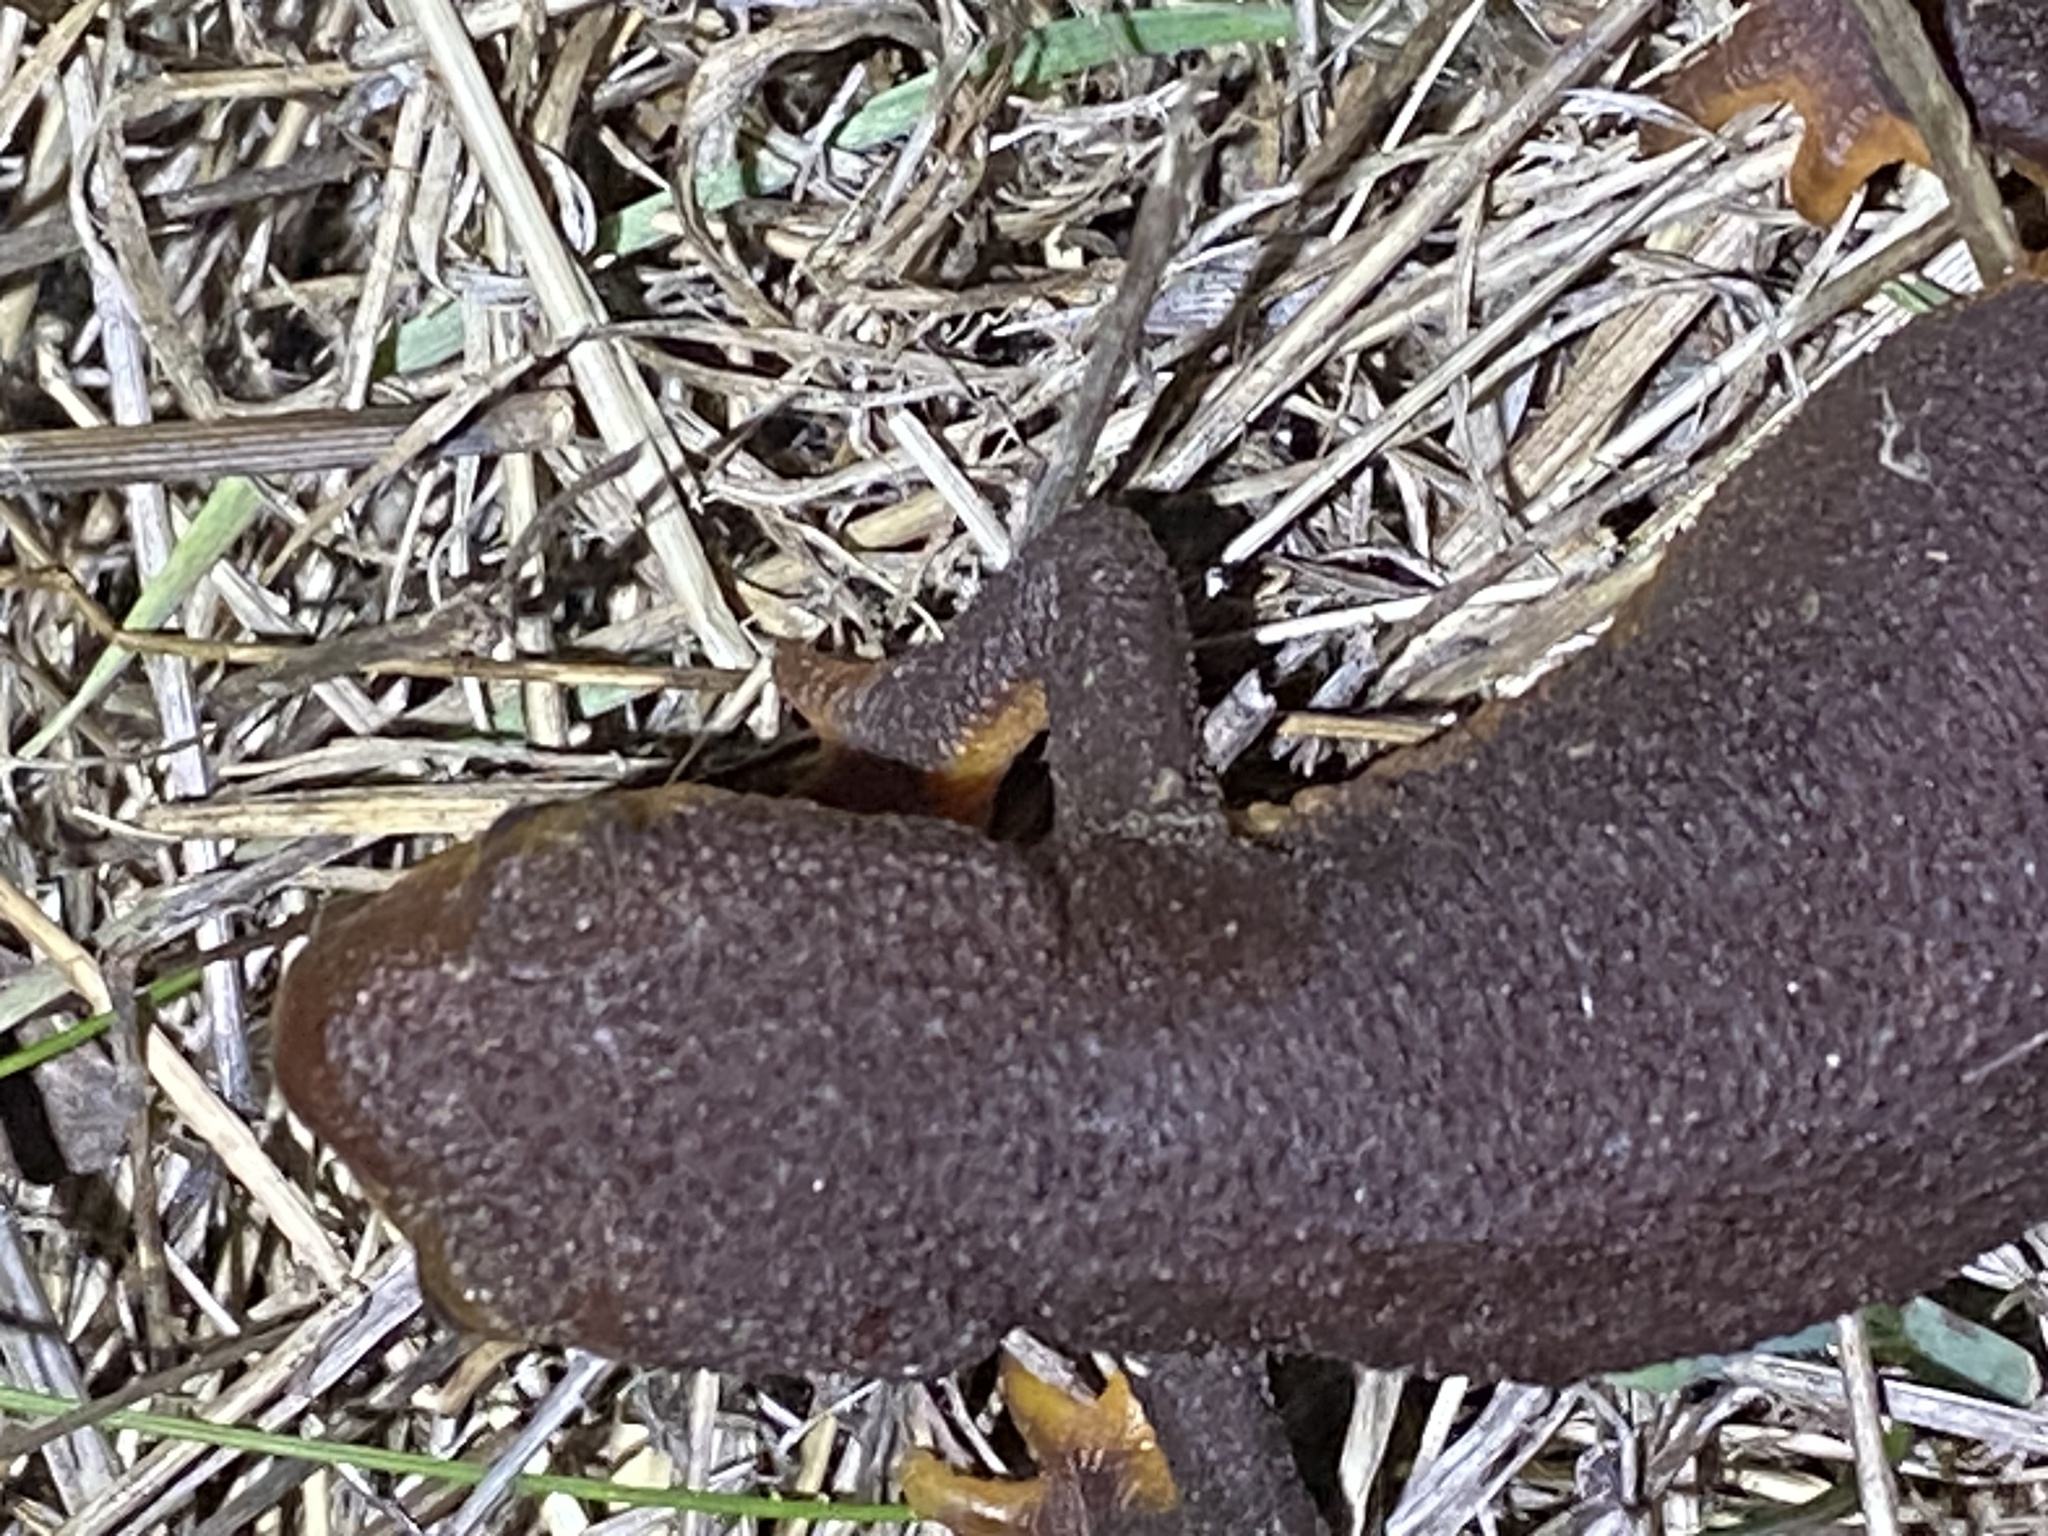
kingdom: Animalia
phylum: Chordata
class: Amphibia
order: Caudata
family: Salamandridae
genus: Taricha
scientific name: Taricha torosa
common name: California newt
